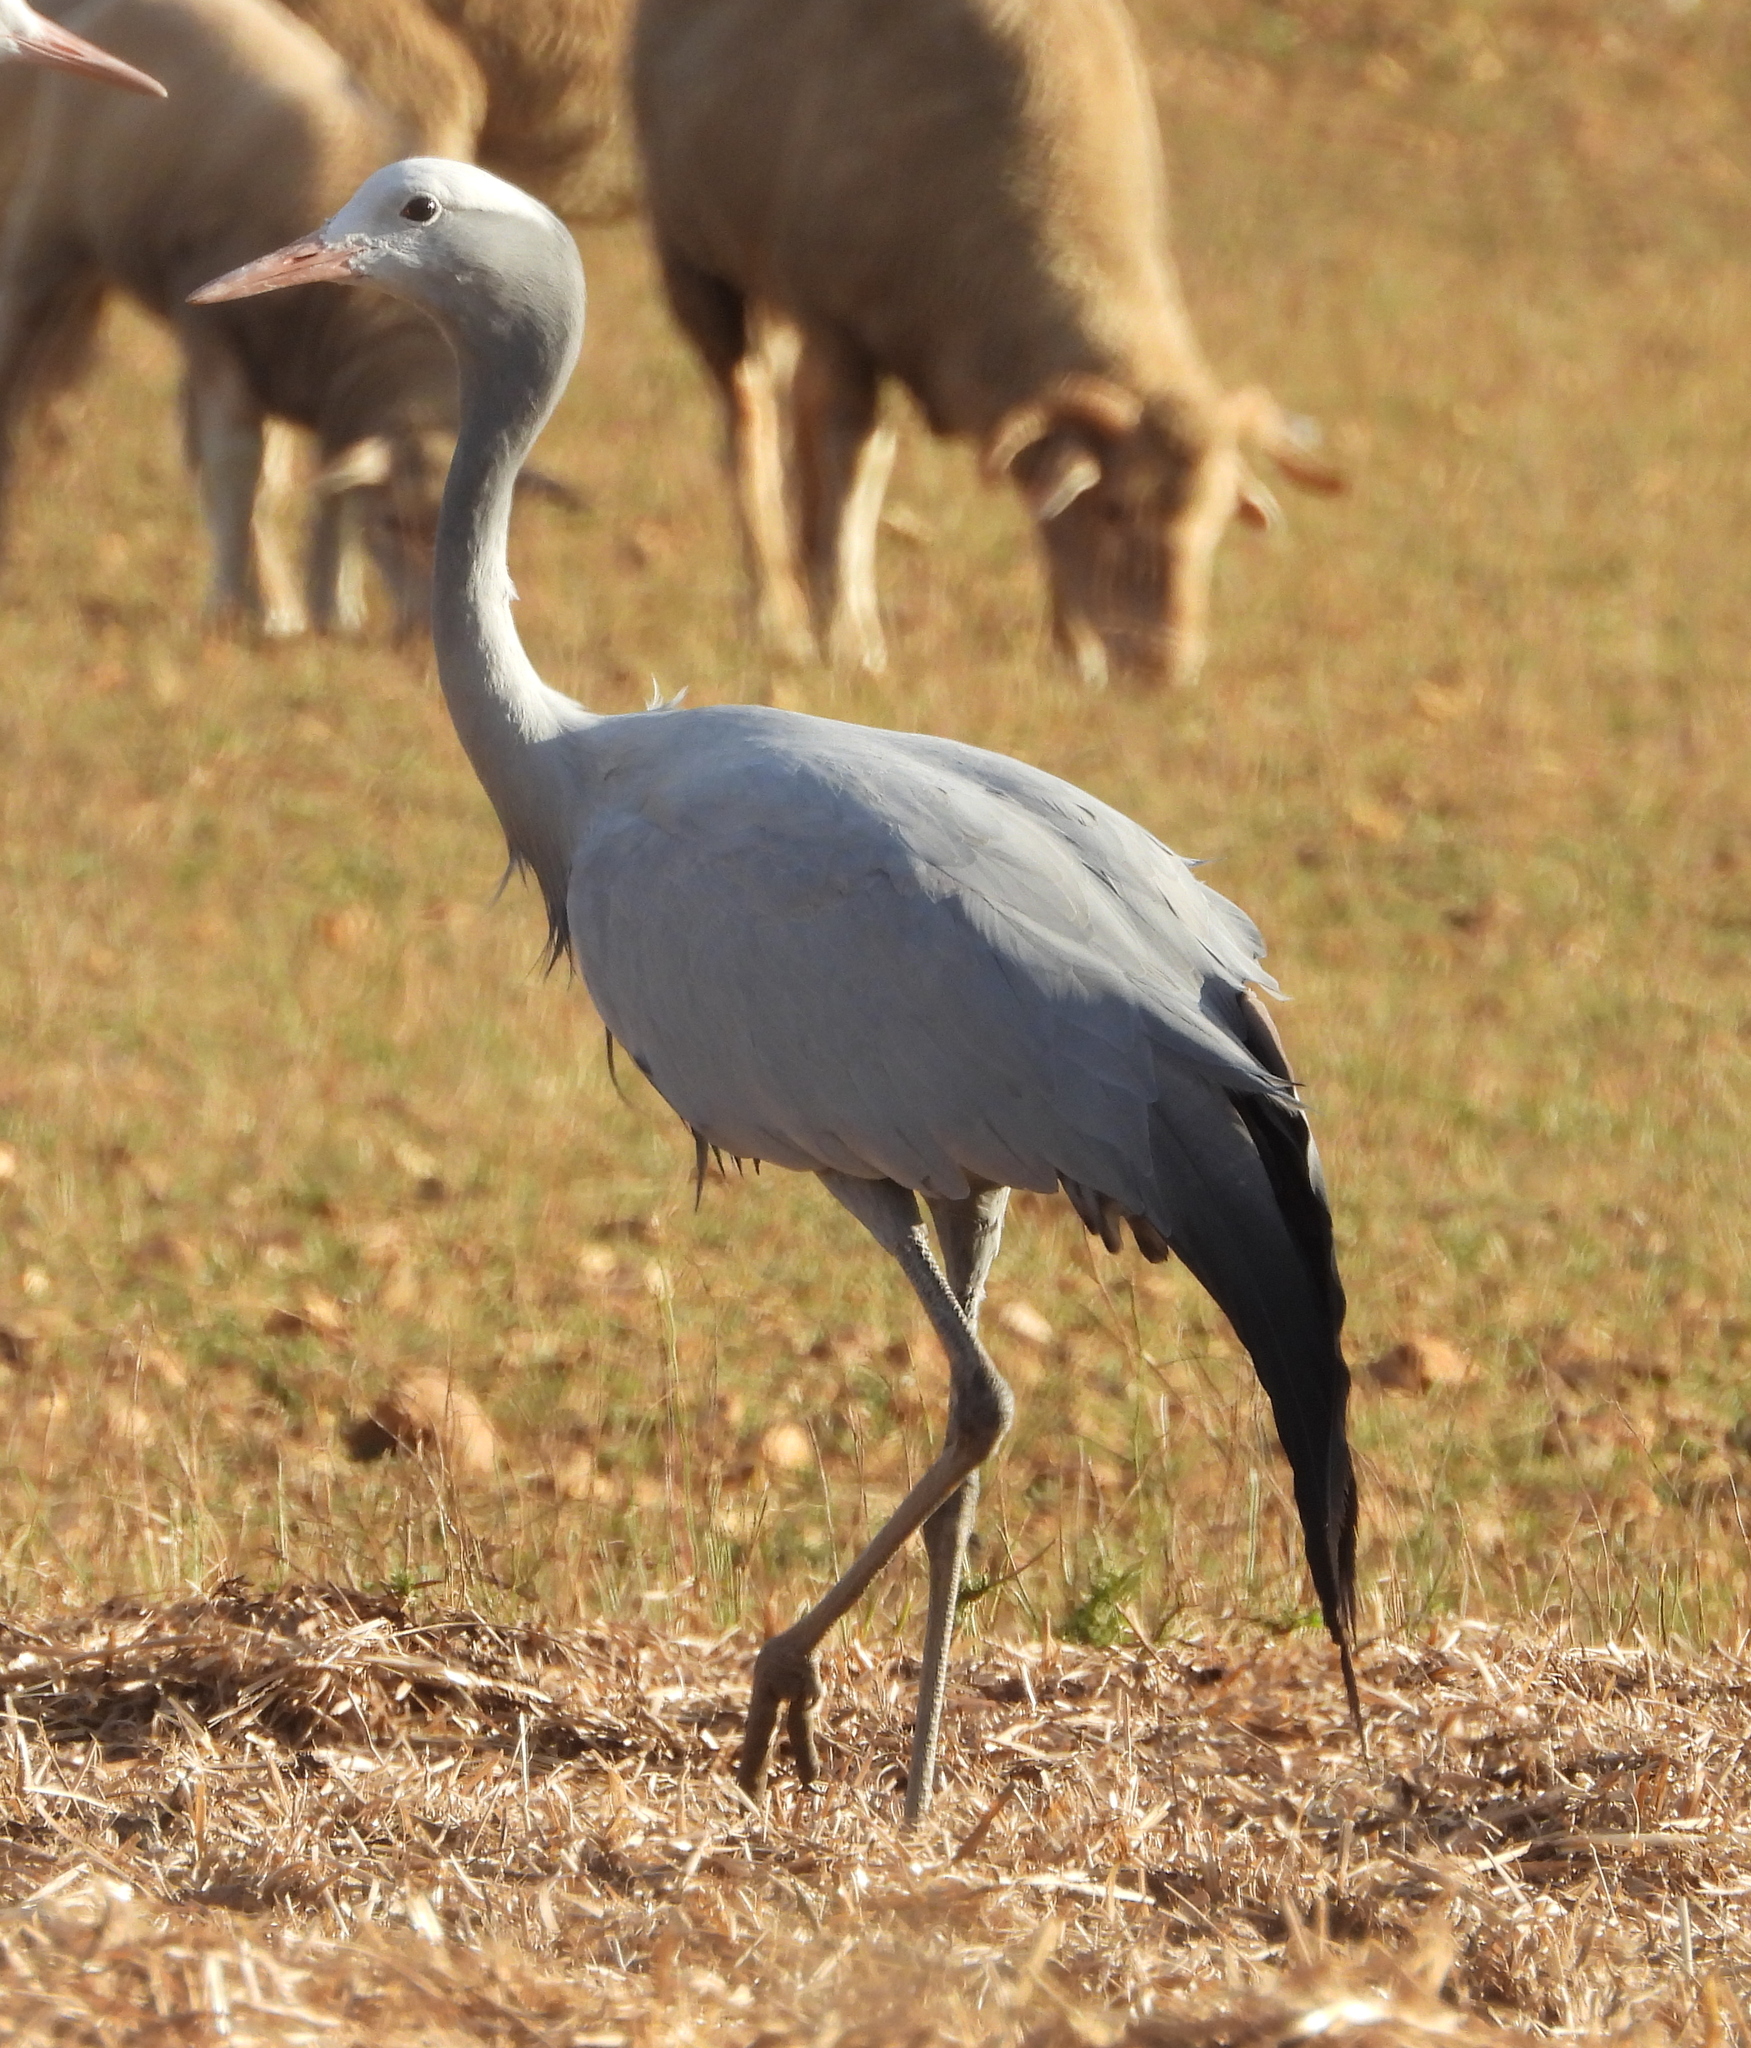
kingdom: Animalia
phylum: Chordata
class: Aves
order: Gruiformes
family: Gruidae
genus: Anthropoides
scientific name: Anthropoides paradiseus
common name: Blue crane
